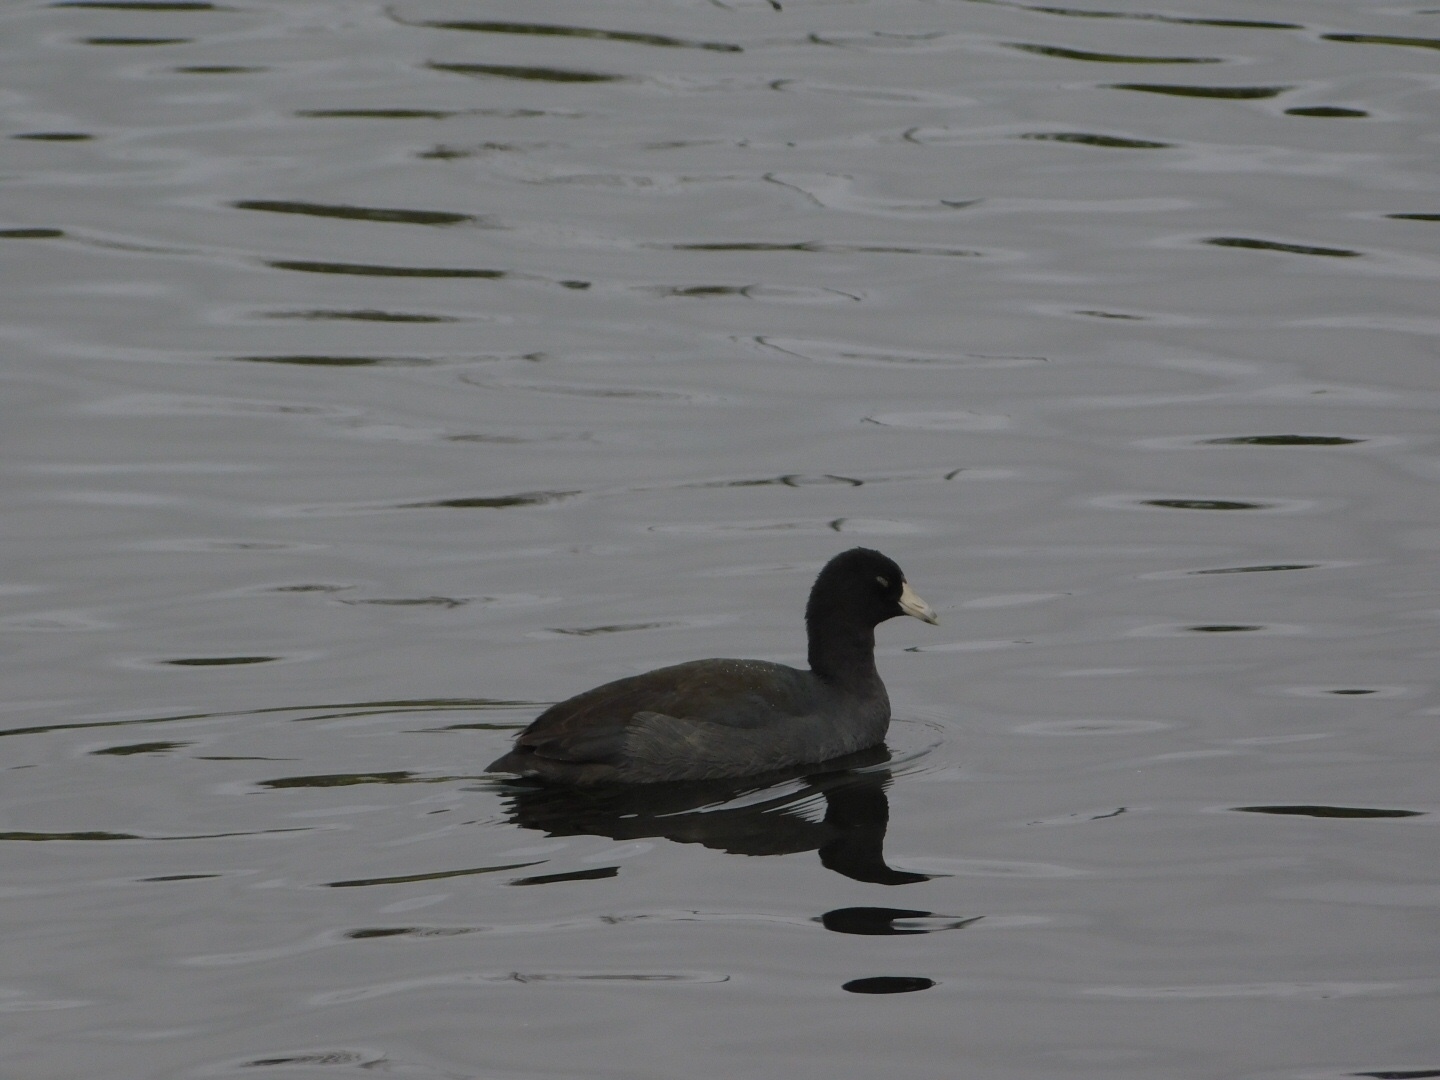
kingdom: Animalia
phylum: Chordata
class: Aves
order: Gruiformes
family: Rallidae
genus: Fulica
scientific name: Fulica americana
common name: American coot
